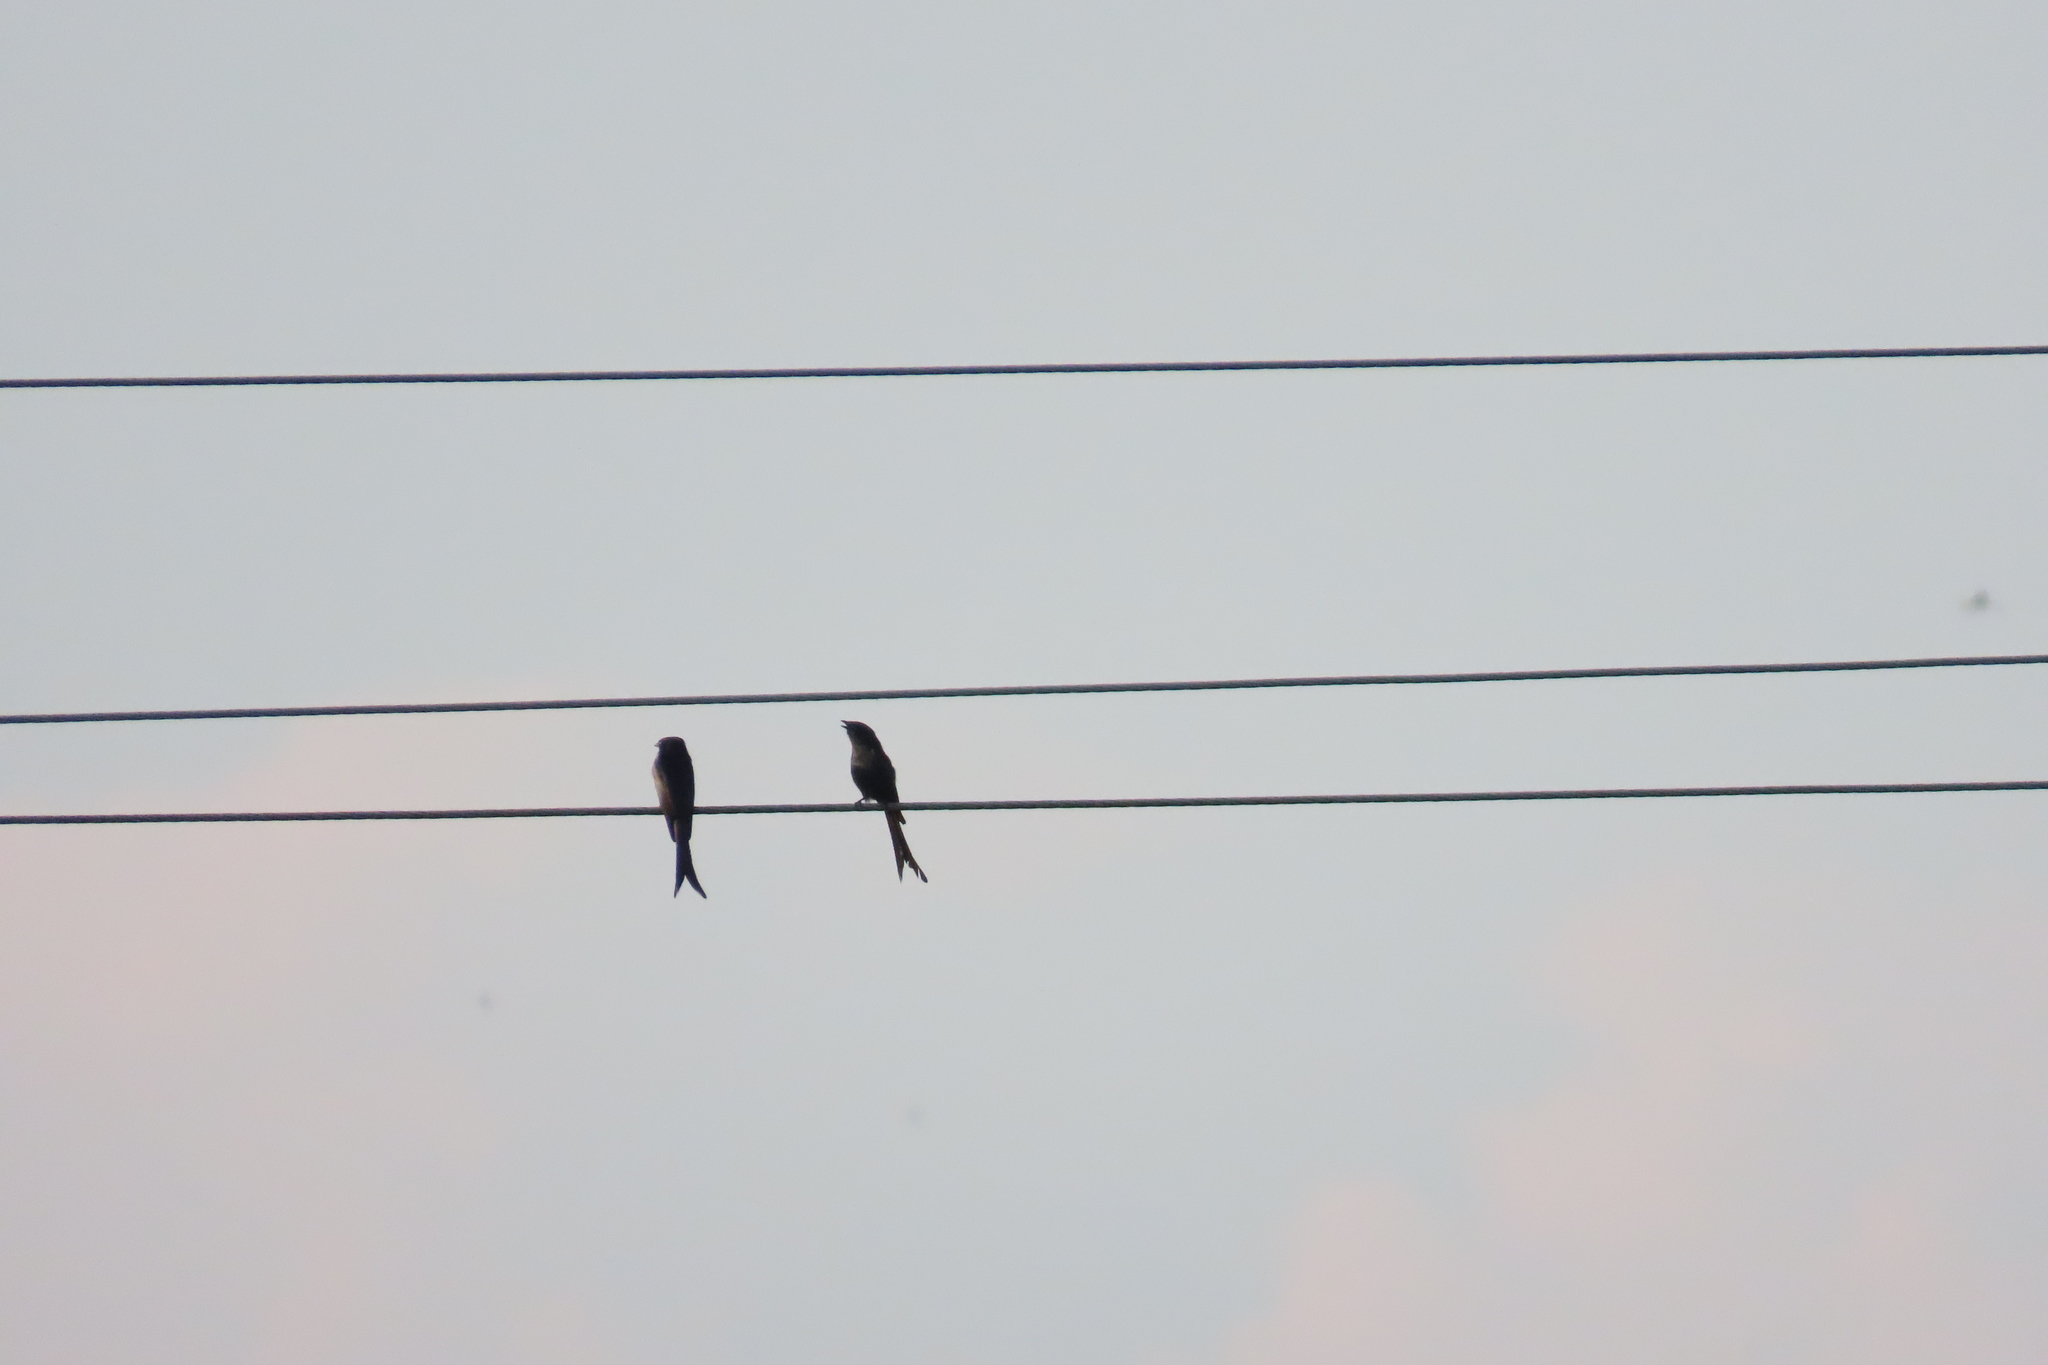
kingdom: Animalia
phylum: Chordata
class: Aves
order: Passeriformes
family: Dicruridae
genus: Dicrurus
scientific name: Dicrurus macrocercus
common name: Black drongo
